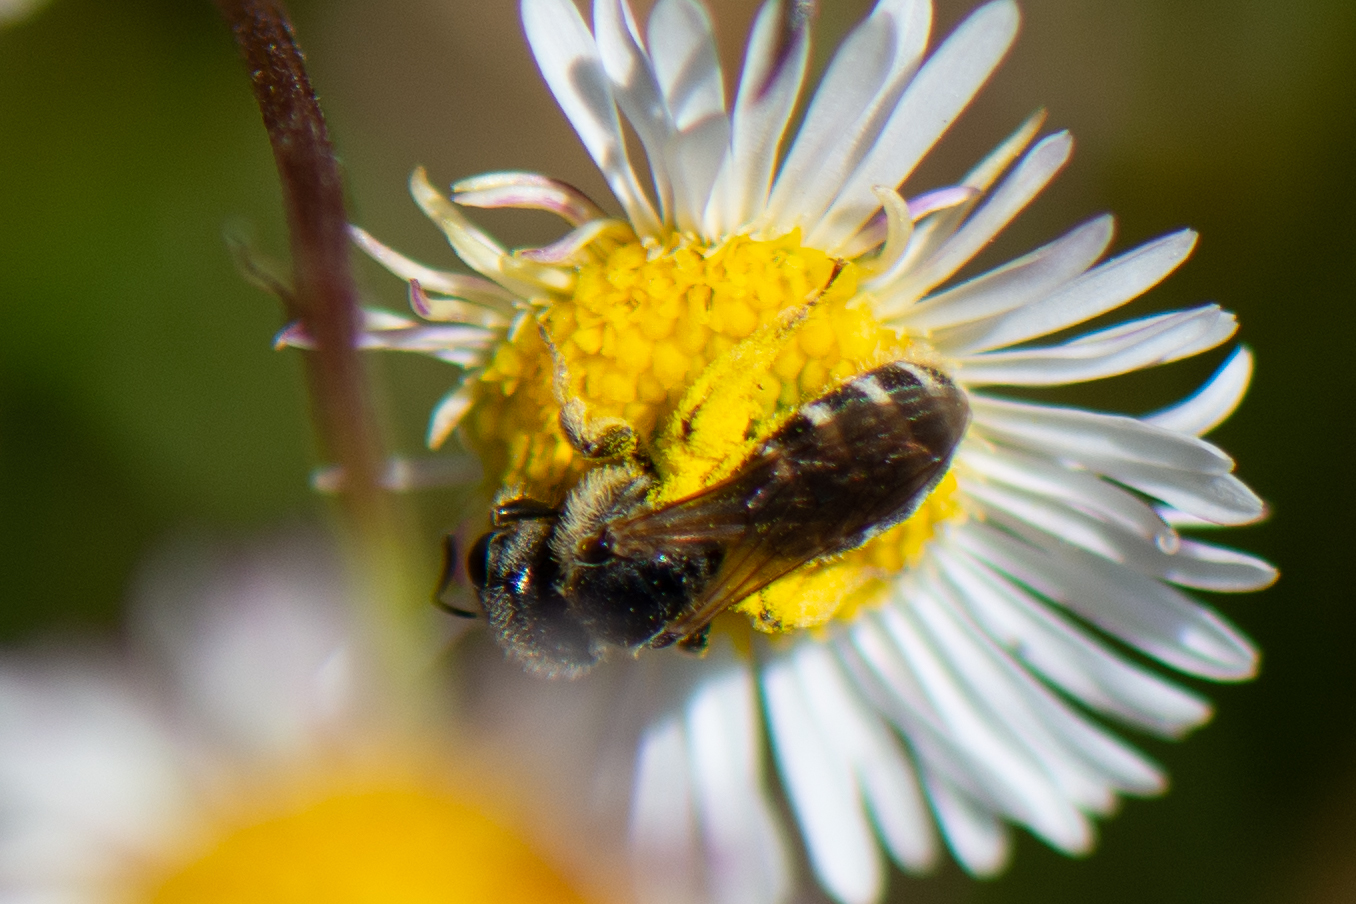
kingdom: Animalia
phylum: Arthropoda
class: Insecta
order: Hymenoptera
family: Halictidae
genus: Halictus
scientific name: Halictus ligatus
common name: Ligated furrow bee
